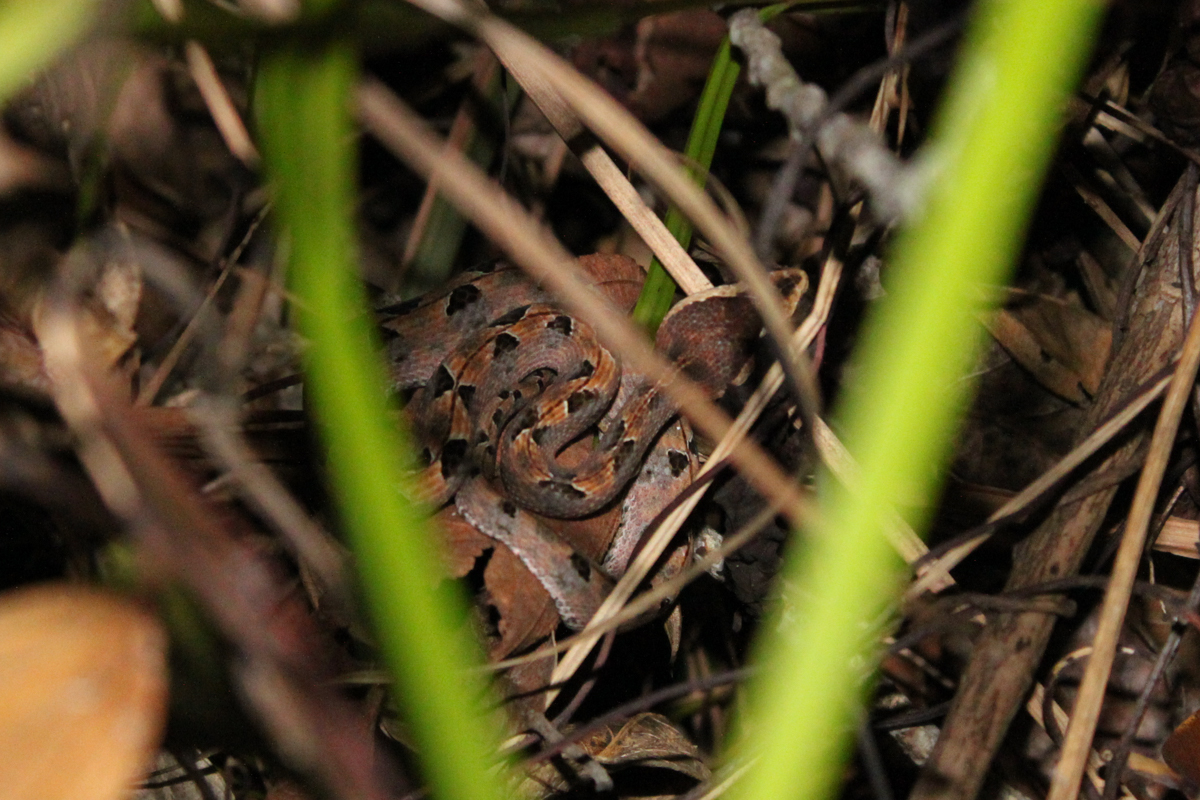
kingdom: Animalia
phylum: Chordata
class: Squamata
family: Viperidae
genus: Calloselasma
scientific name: Calloselasma rhodostoma
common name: Malayan pit viper
